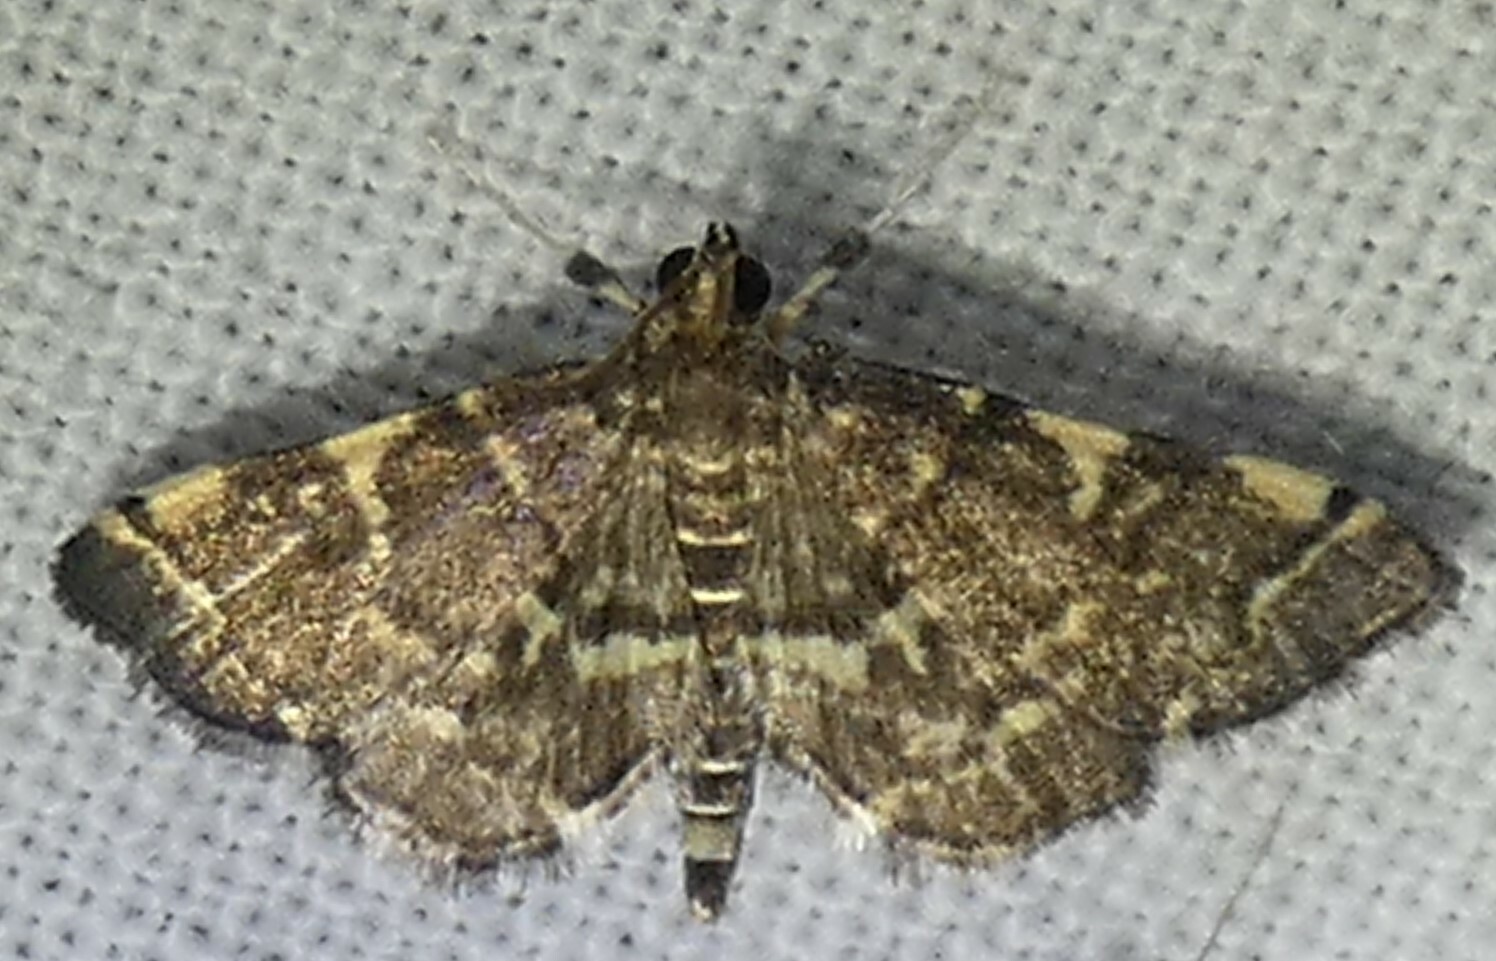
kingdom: Animalia
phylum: Arthropoda
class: Insecta
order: Lepidoptera
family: Crambidae
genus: Anageshna
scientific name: Anageshna primordialis
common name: Yellow-spotted webworm moth
